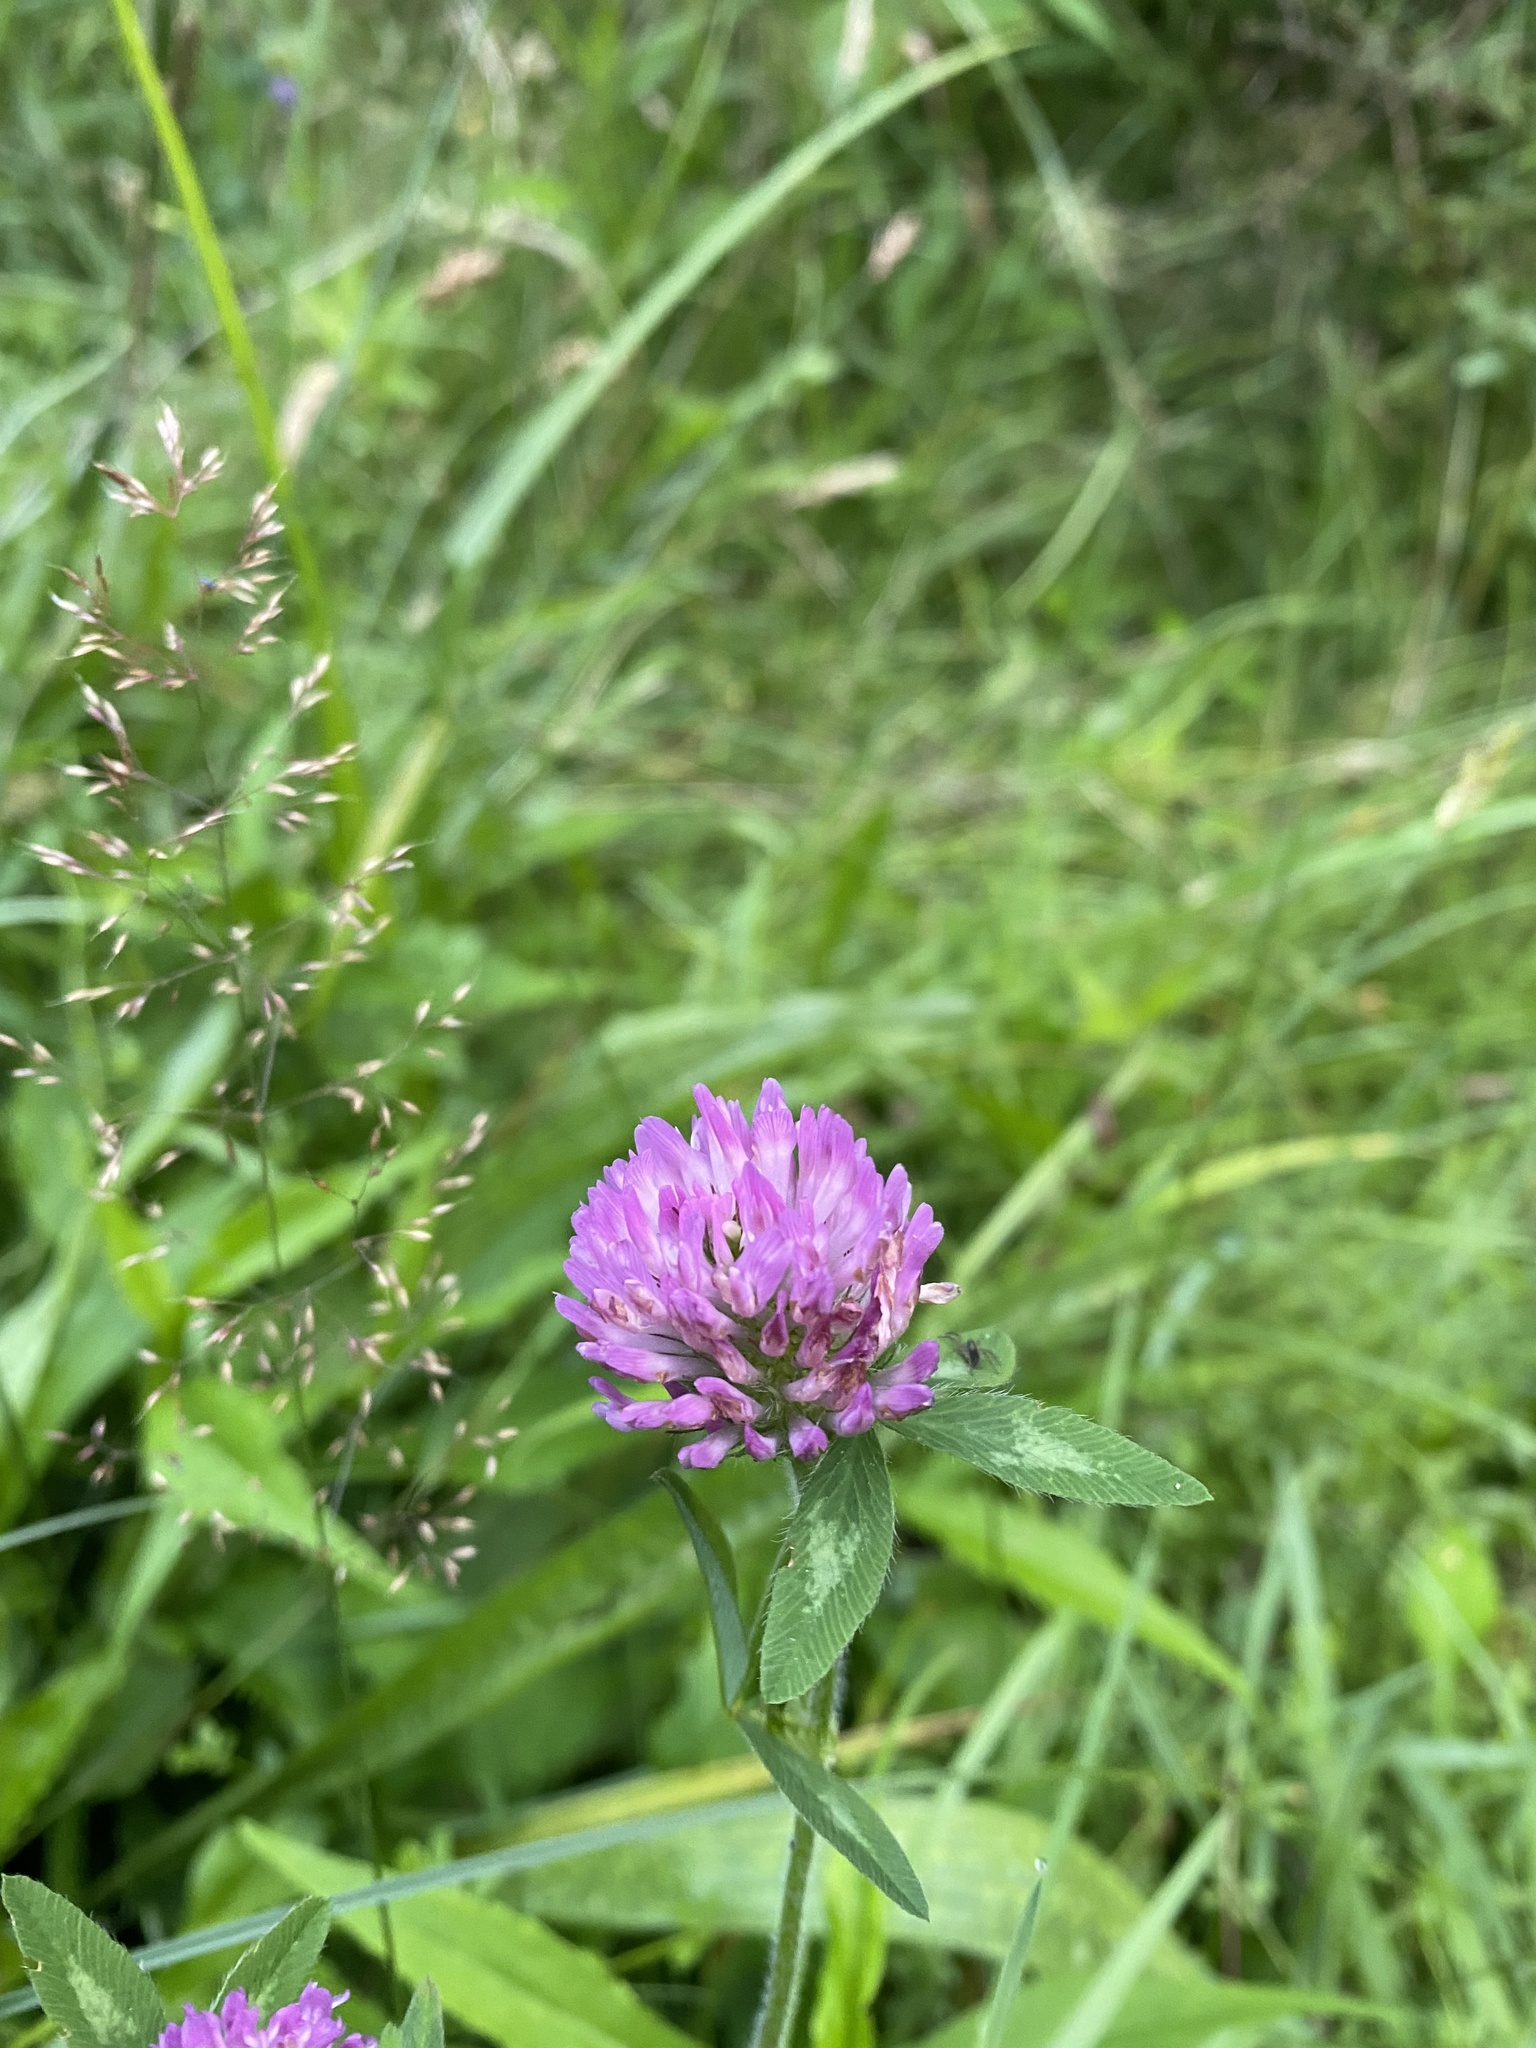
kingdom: Plantae
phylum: Tracheophyta
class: Magnoliopsida
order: Fabales
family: Fabaceae
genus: Trifolium
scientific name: Trifolium pratense
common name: Red clover
